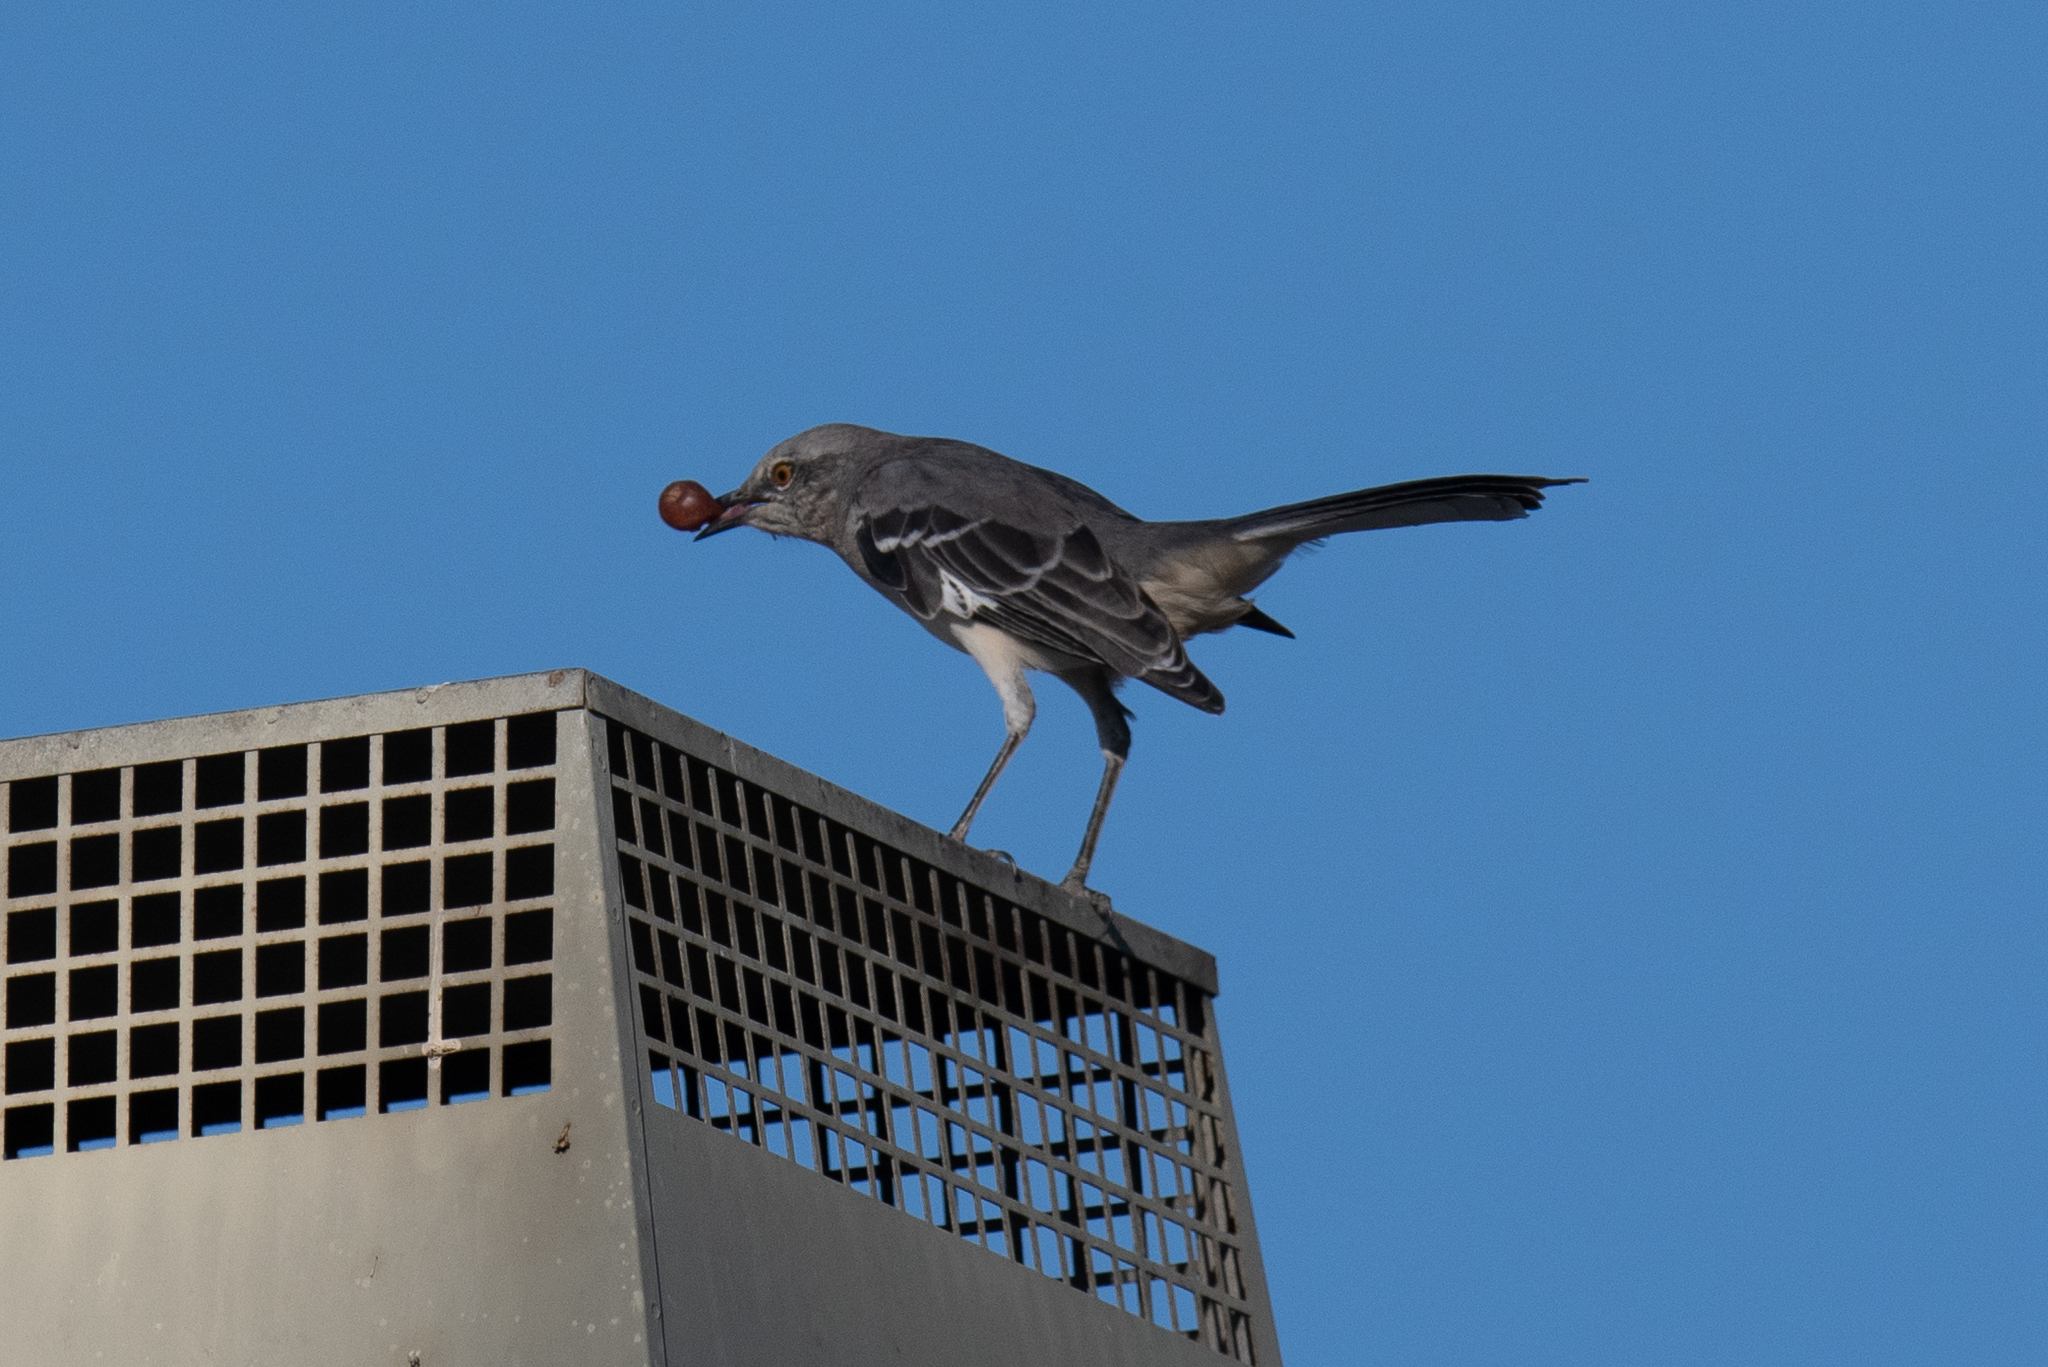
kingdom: Animalia
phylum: Chordata
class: Aves
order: Passeriformes
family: Mimidae
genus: Mimus
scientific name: Mimus polyglottos
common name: Northern mockingbird
